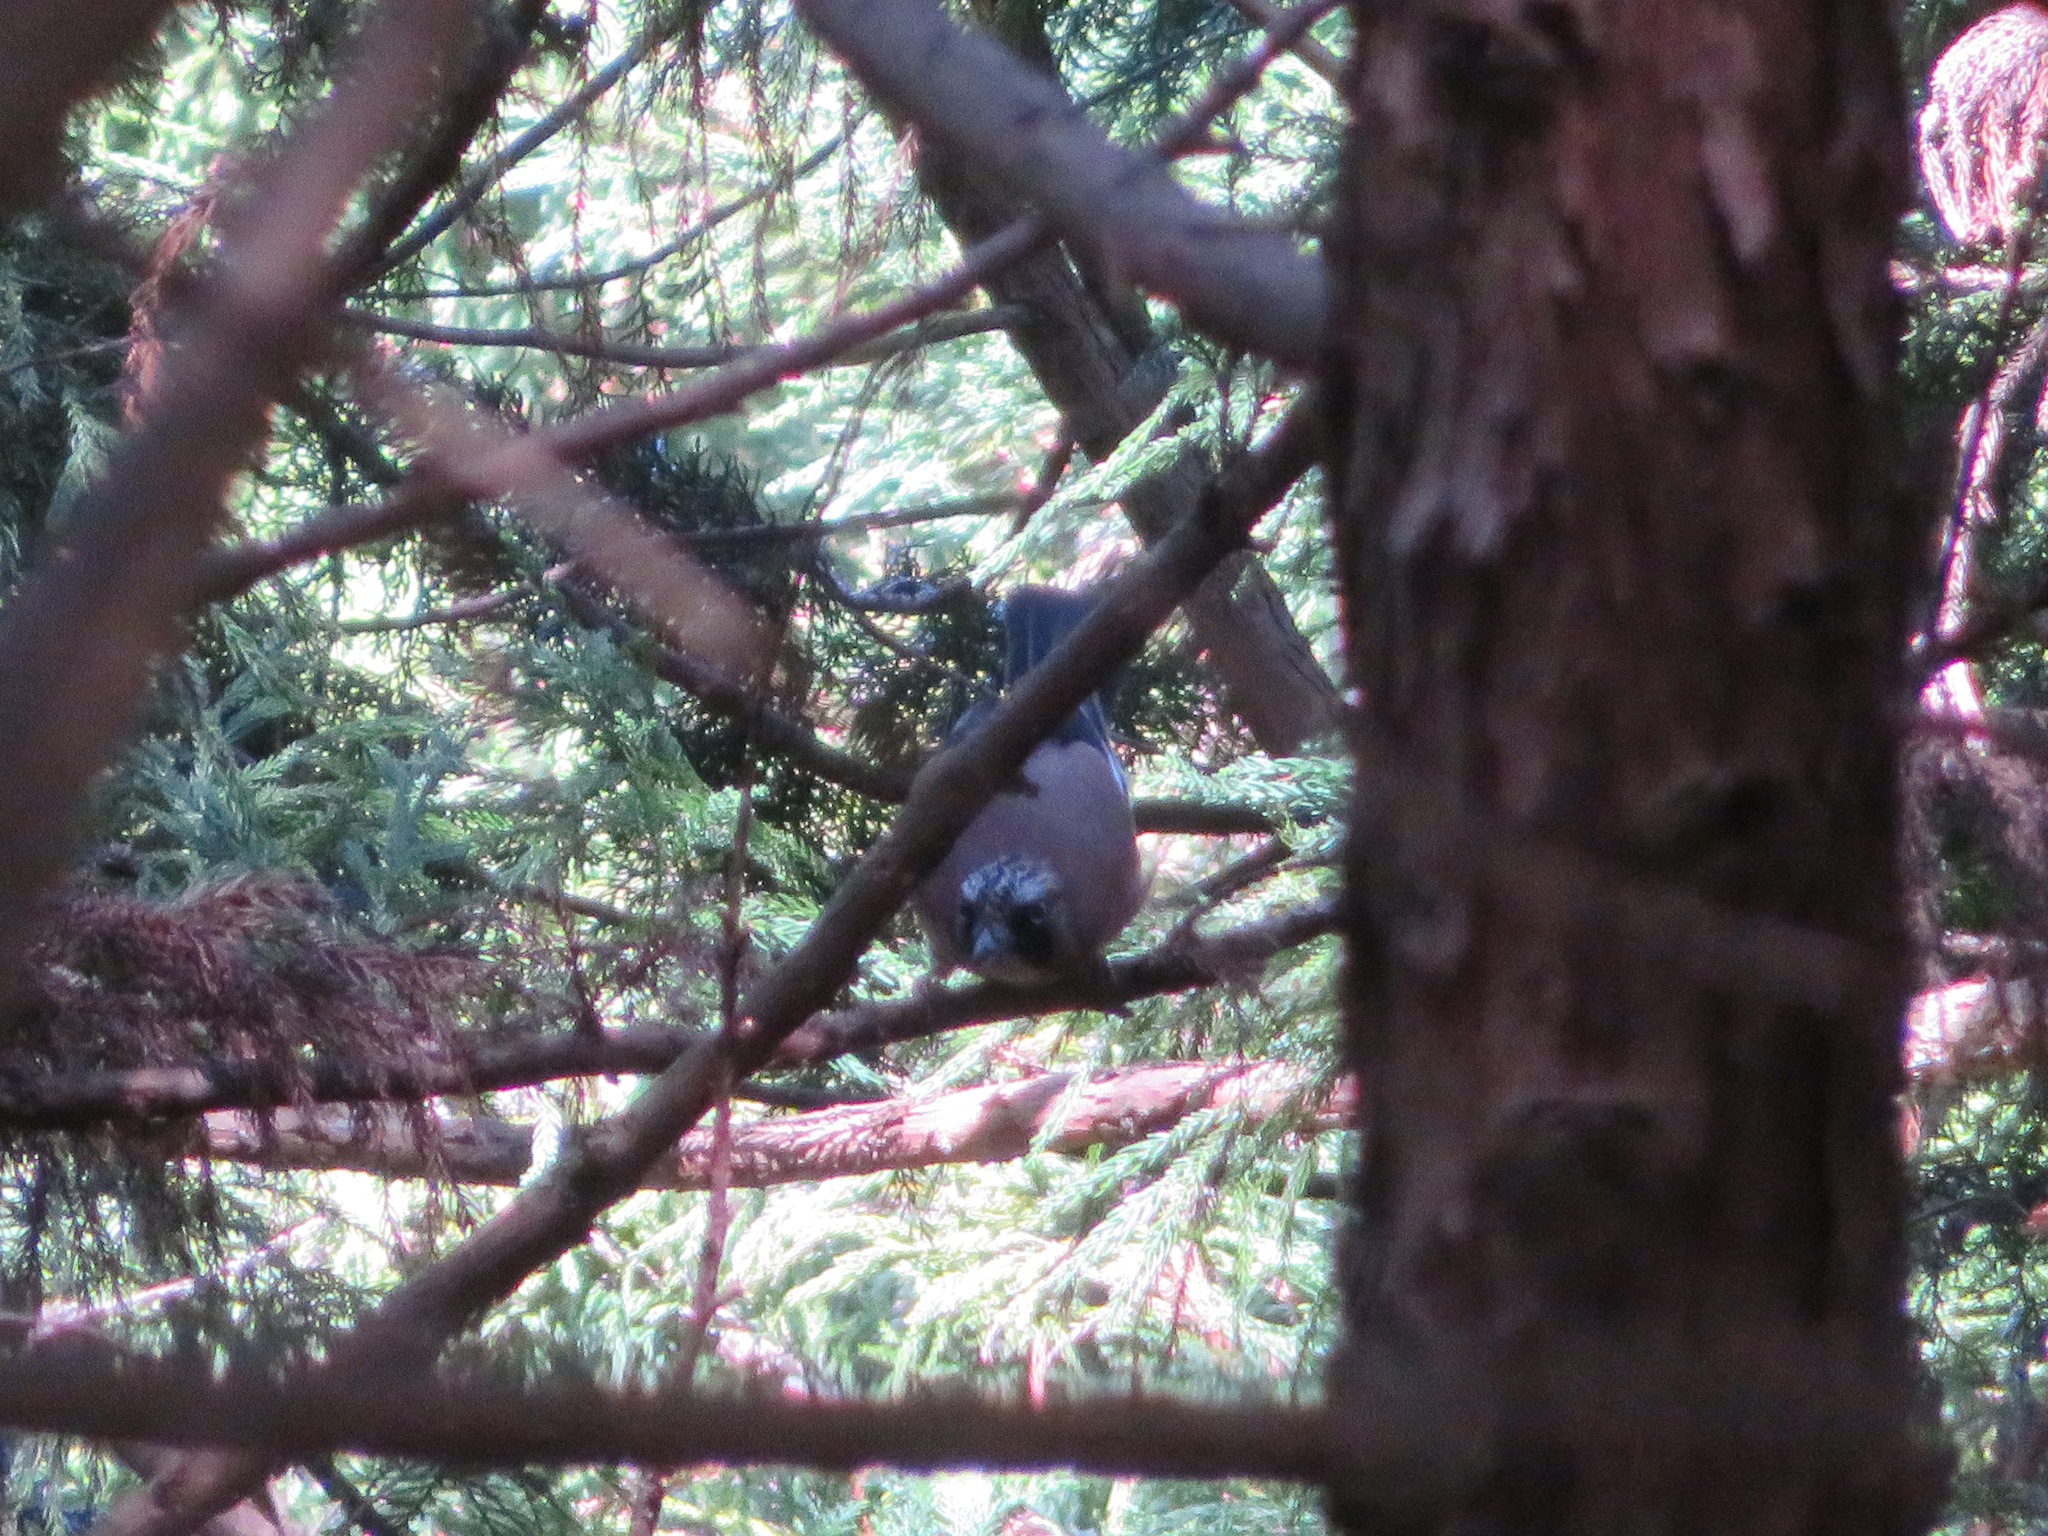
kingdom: Animalia
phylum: Chordata
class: Aves
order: Passeriformes
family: Corvidae
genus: Garrulus
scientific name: Garrulus glandarius
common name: Eurasian jay
